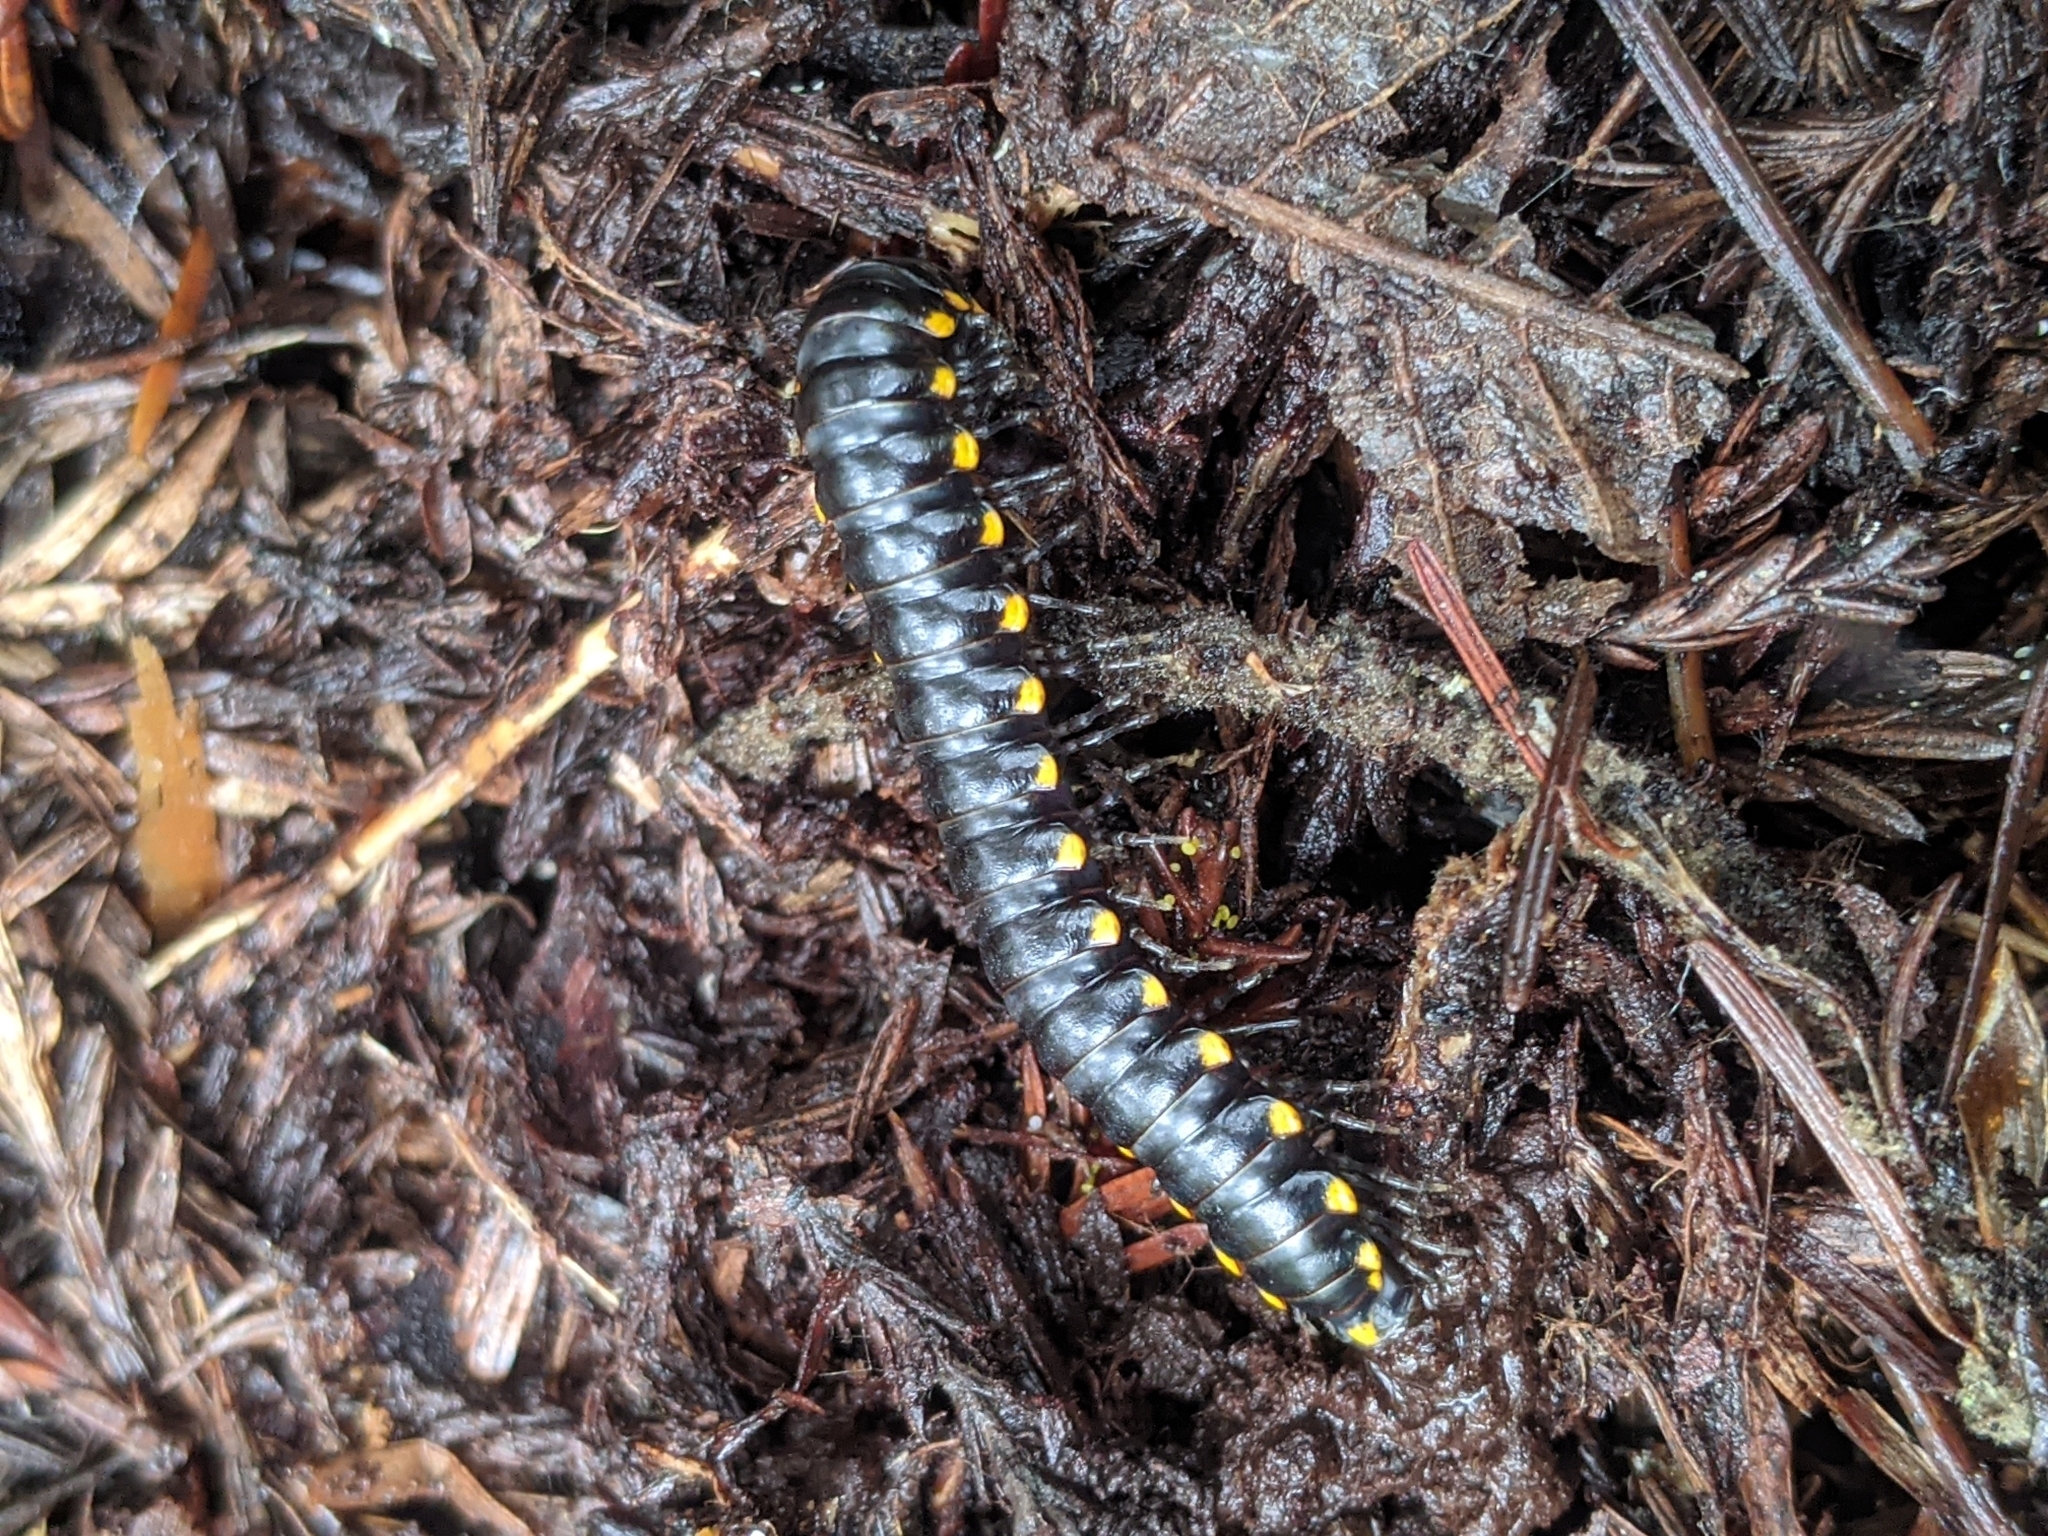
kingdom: Animalia
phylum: Arthropoda
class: Diplopoda
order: Polydesmida
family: Xystodesmidae
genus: Harpaphe
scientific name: Harpaphe haydeniana
